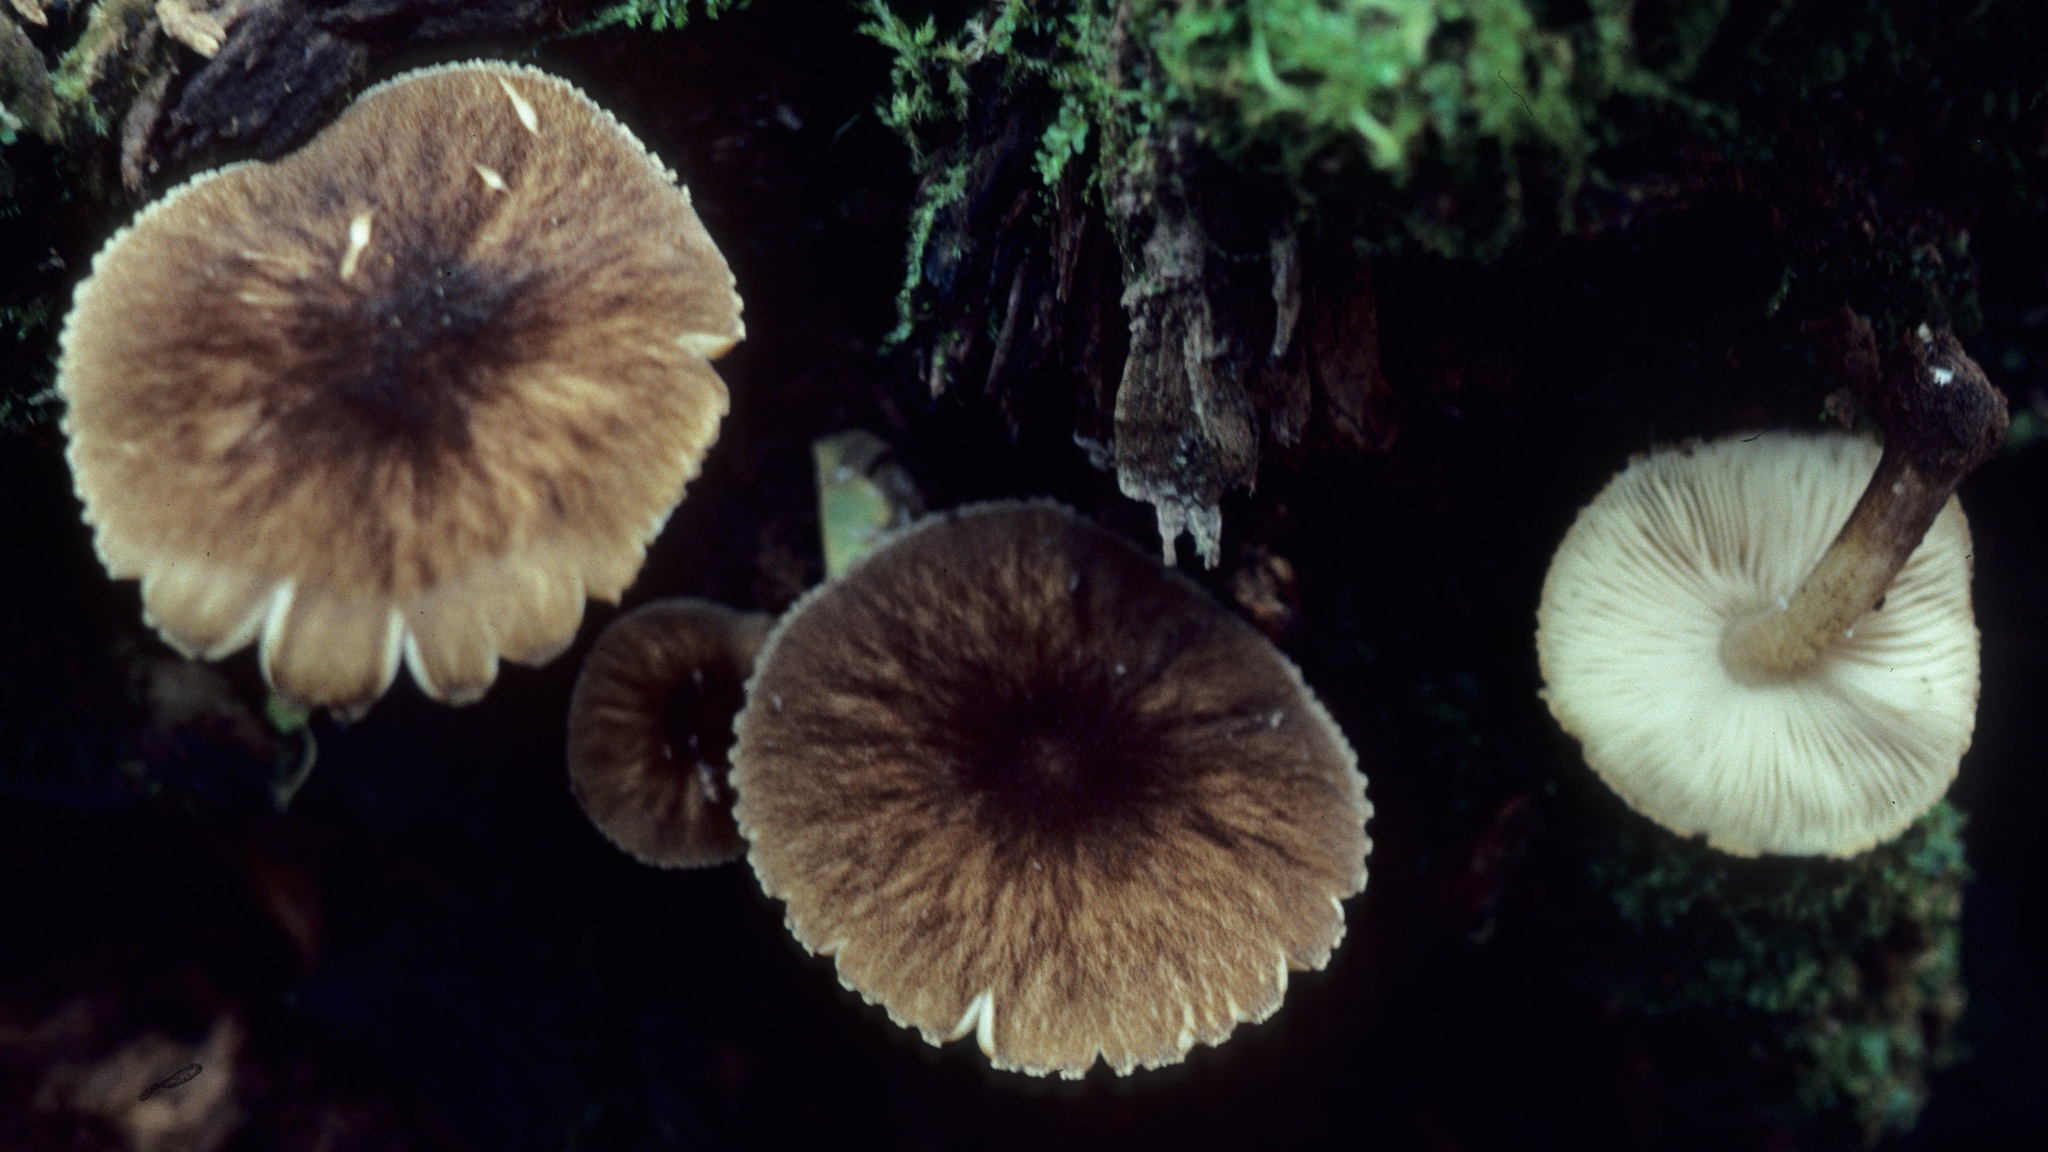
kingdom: Fungi
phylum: Basidiomycota
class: Agaricomycetes
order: Agaricales
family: Pluteaceae
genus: Pluteus
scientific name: Pluteus granularis
